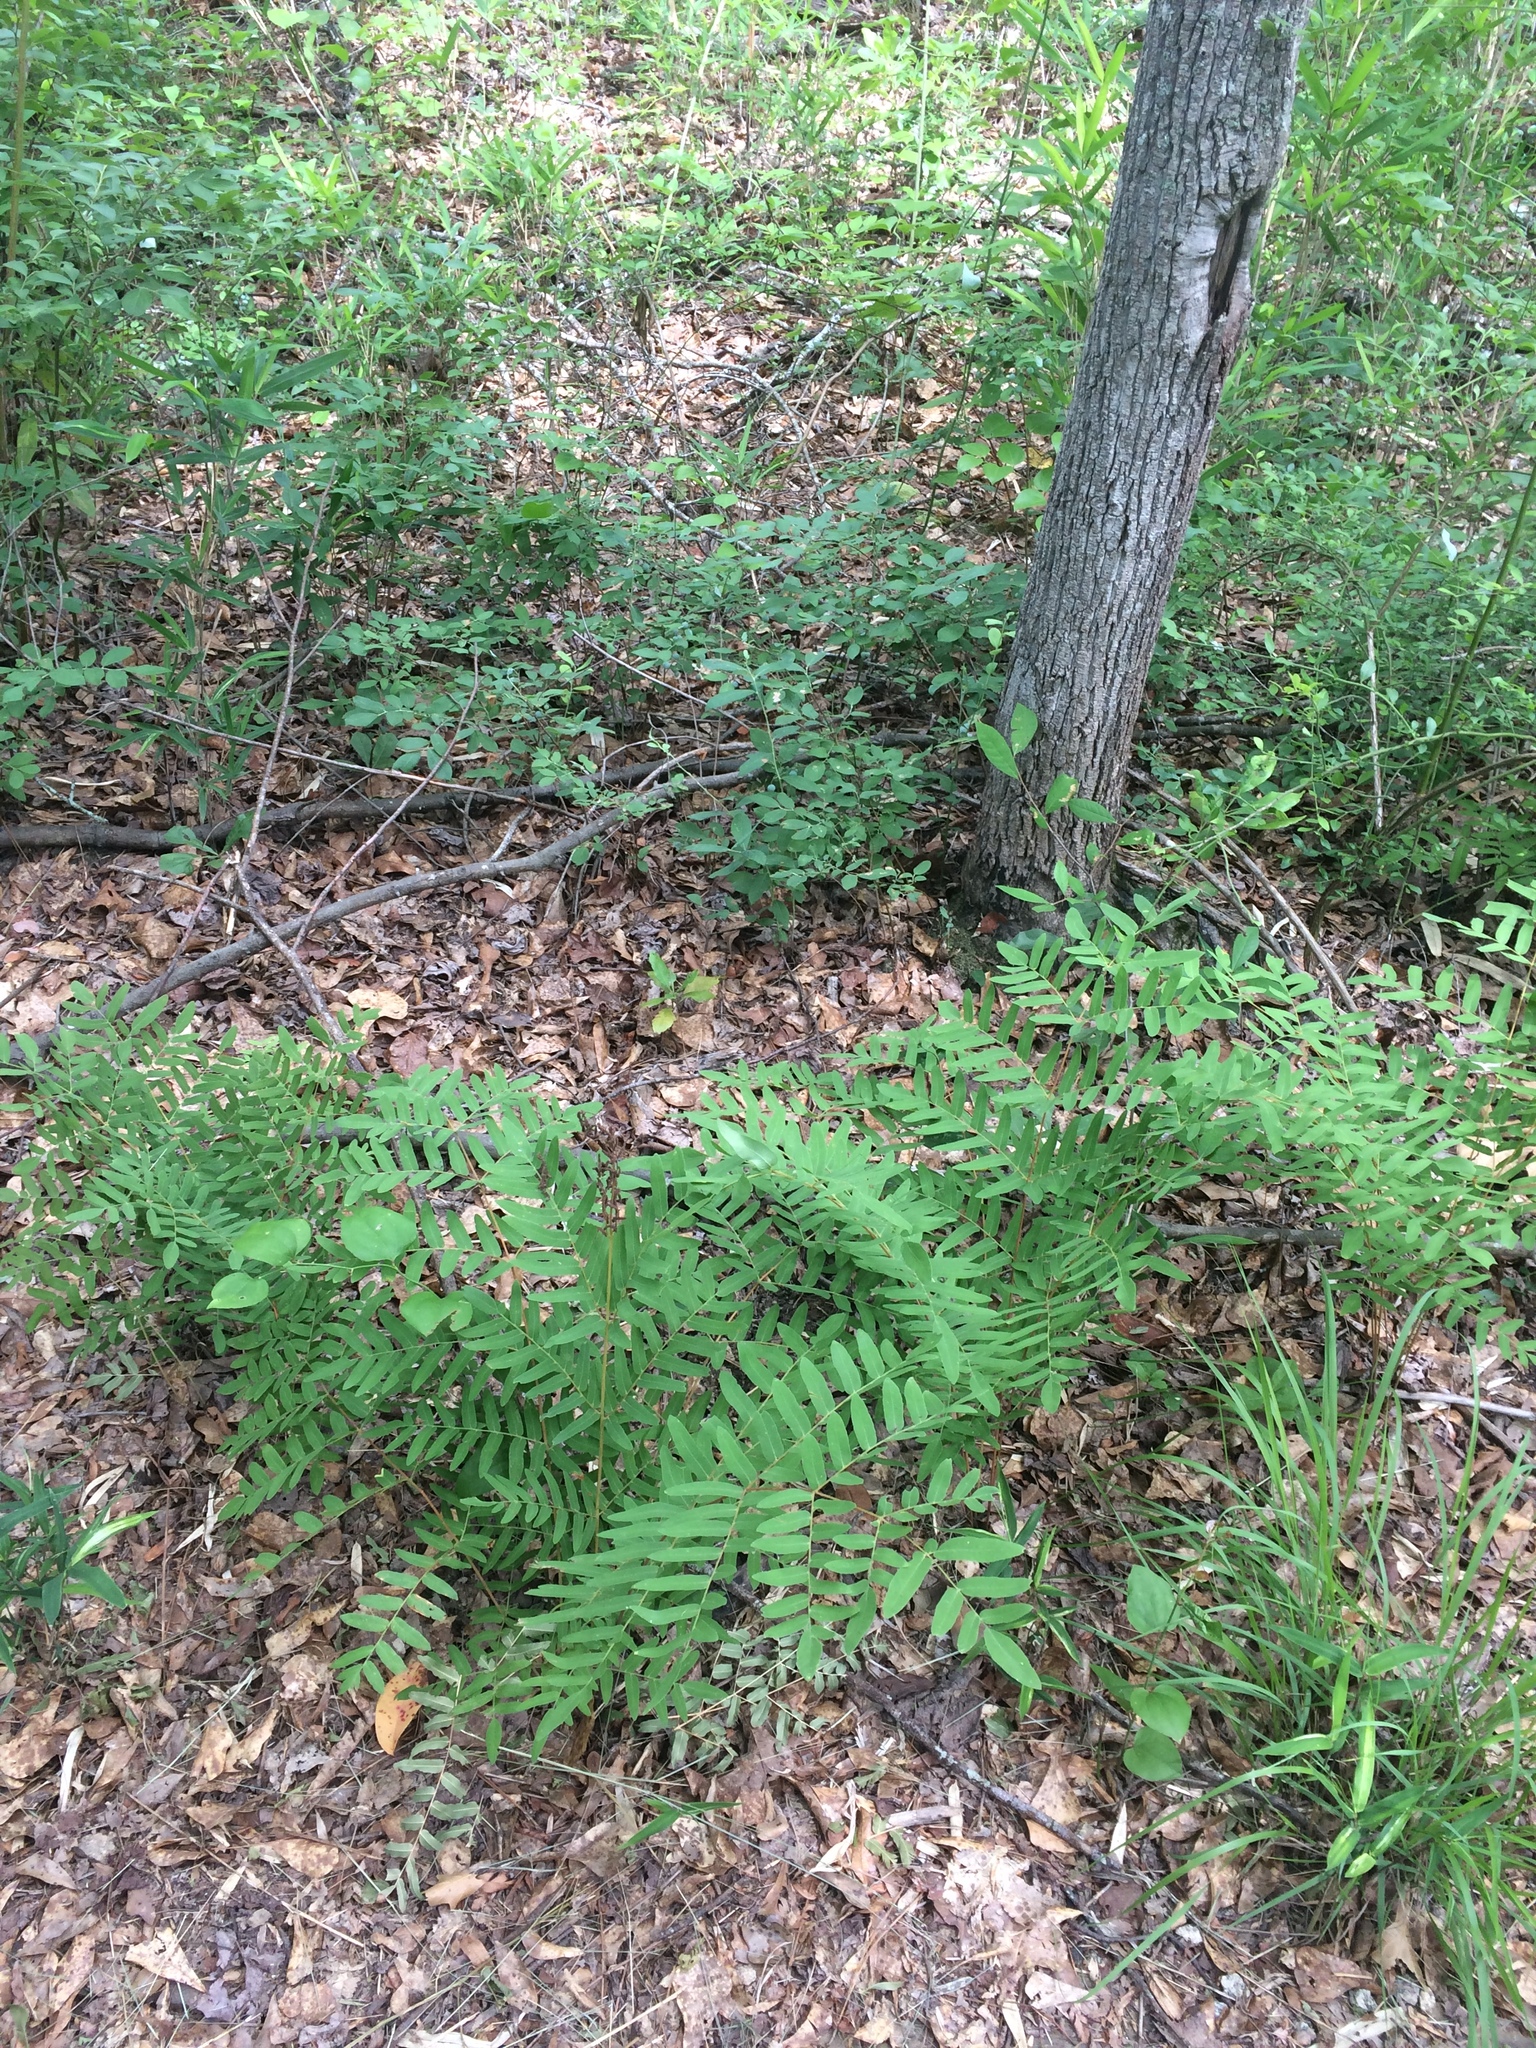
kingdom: Plantae
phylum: Tracheophyta
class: Polypodiopsida
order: Osmundales
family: Osmundaceae
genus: Osmunda
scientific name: Osmunda spectabilis
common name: American royal fern
